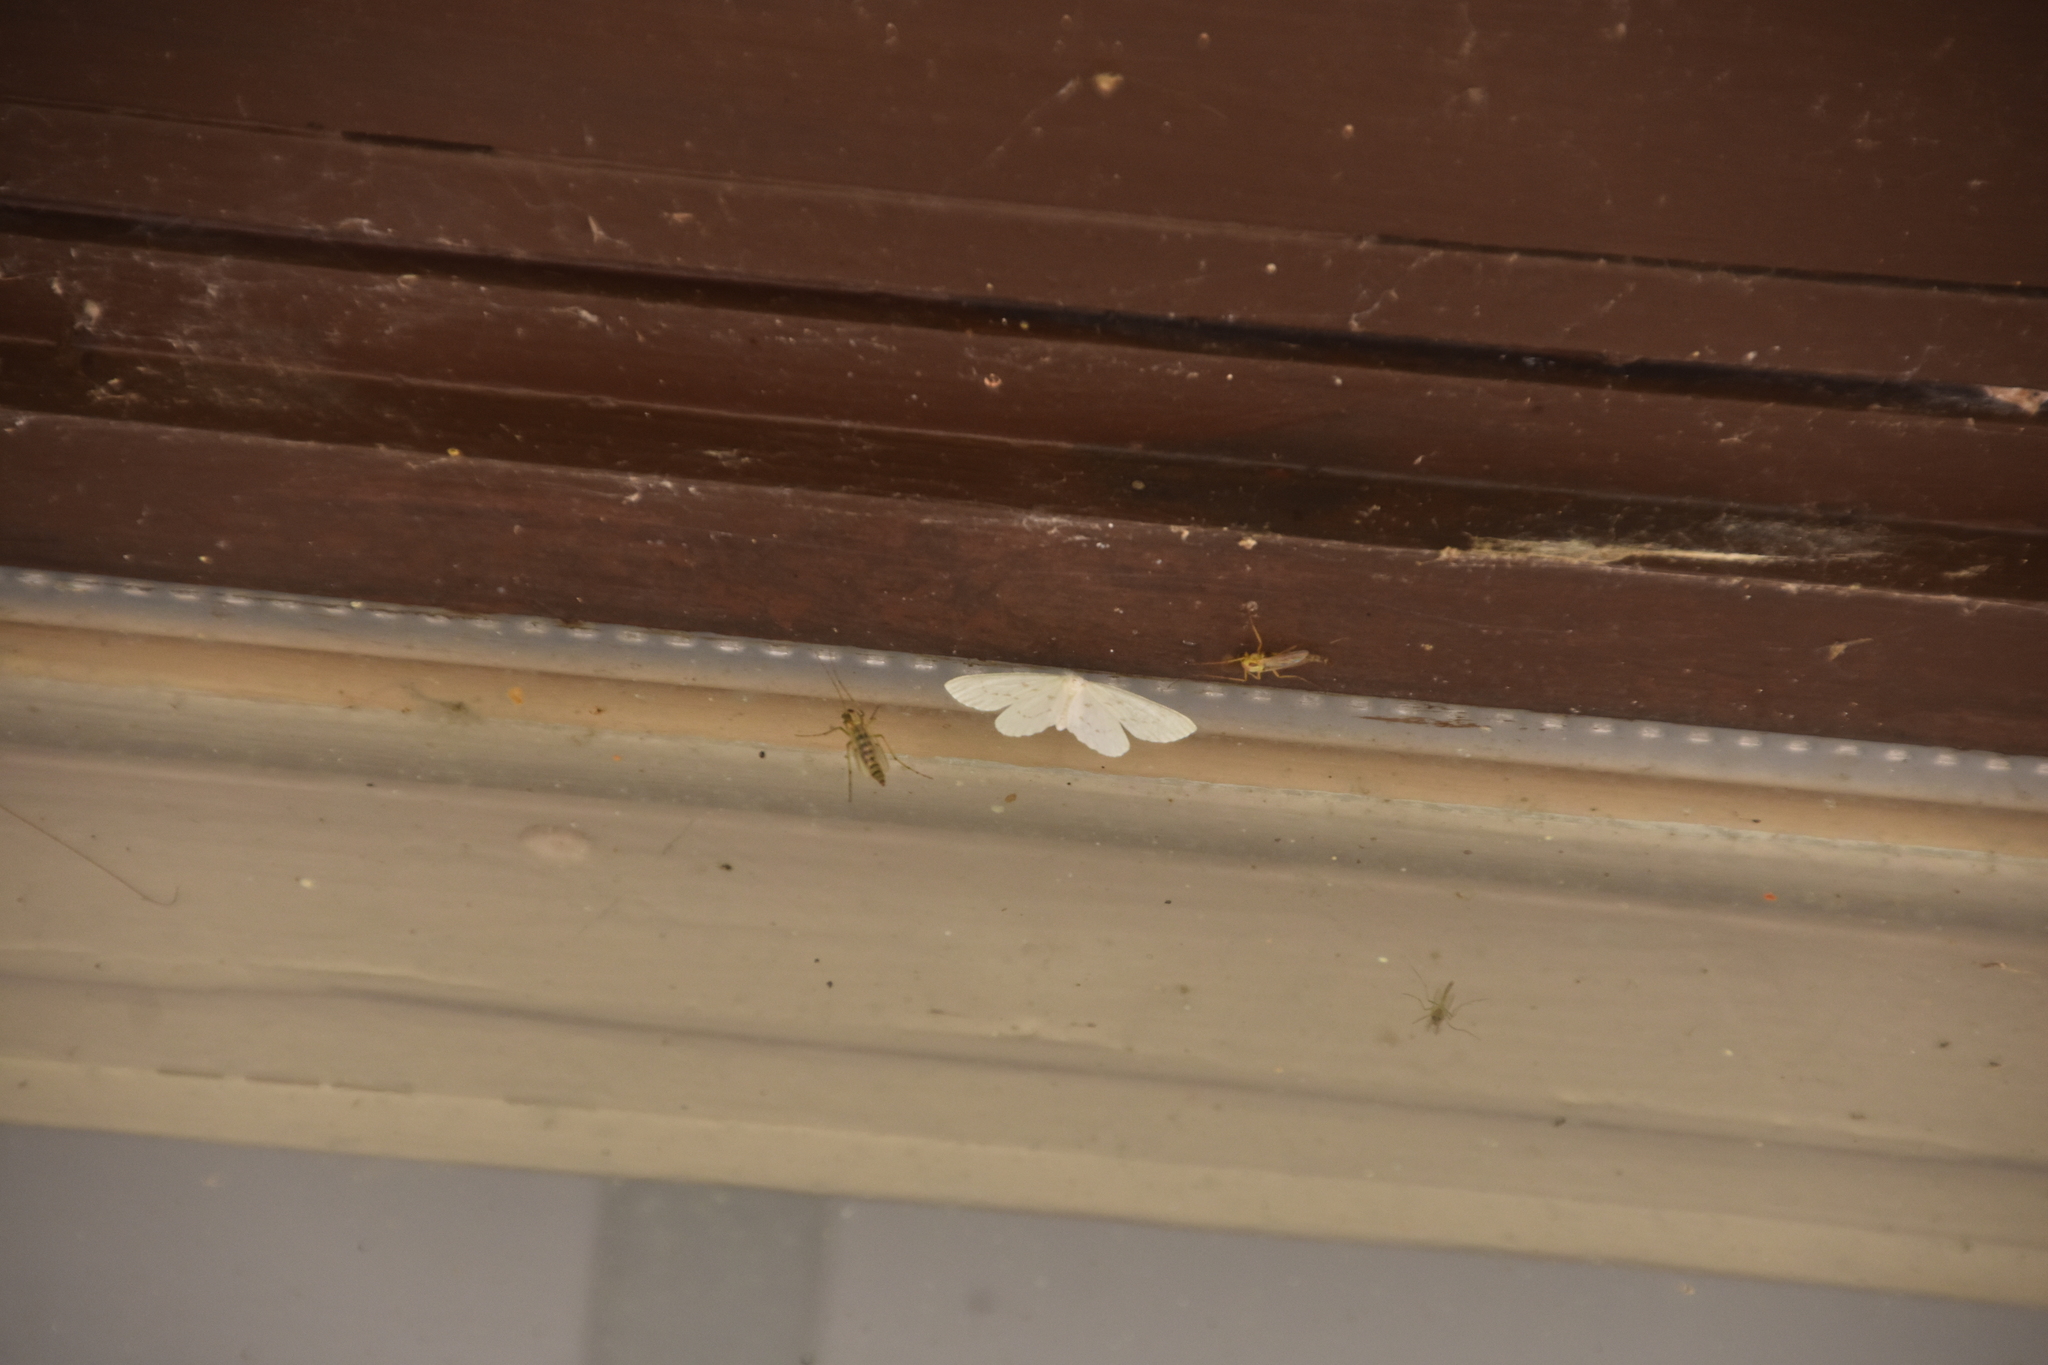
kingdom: Animalia
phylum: Arthropoda
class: Insecta
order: Lepidoptera
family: Drepanidae
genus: Eudeilinia
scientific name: Eudeilinia herminiata
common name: Northern eudeilinea moth
